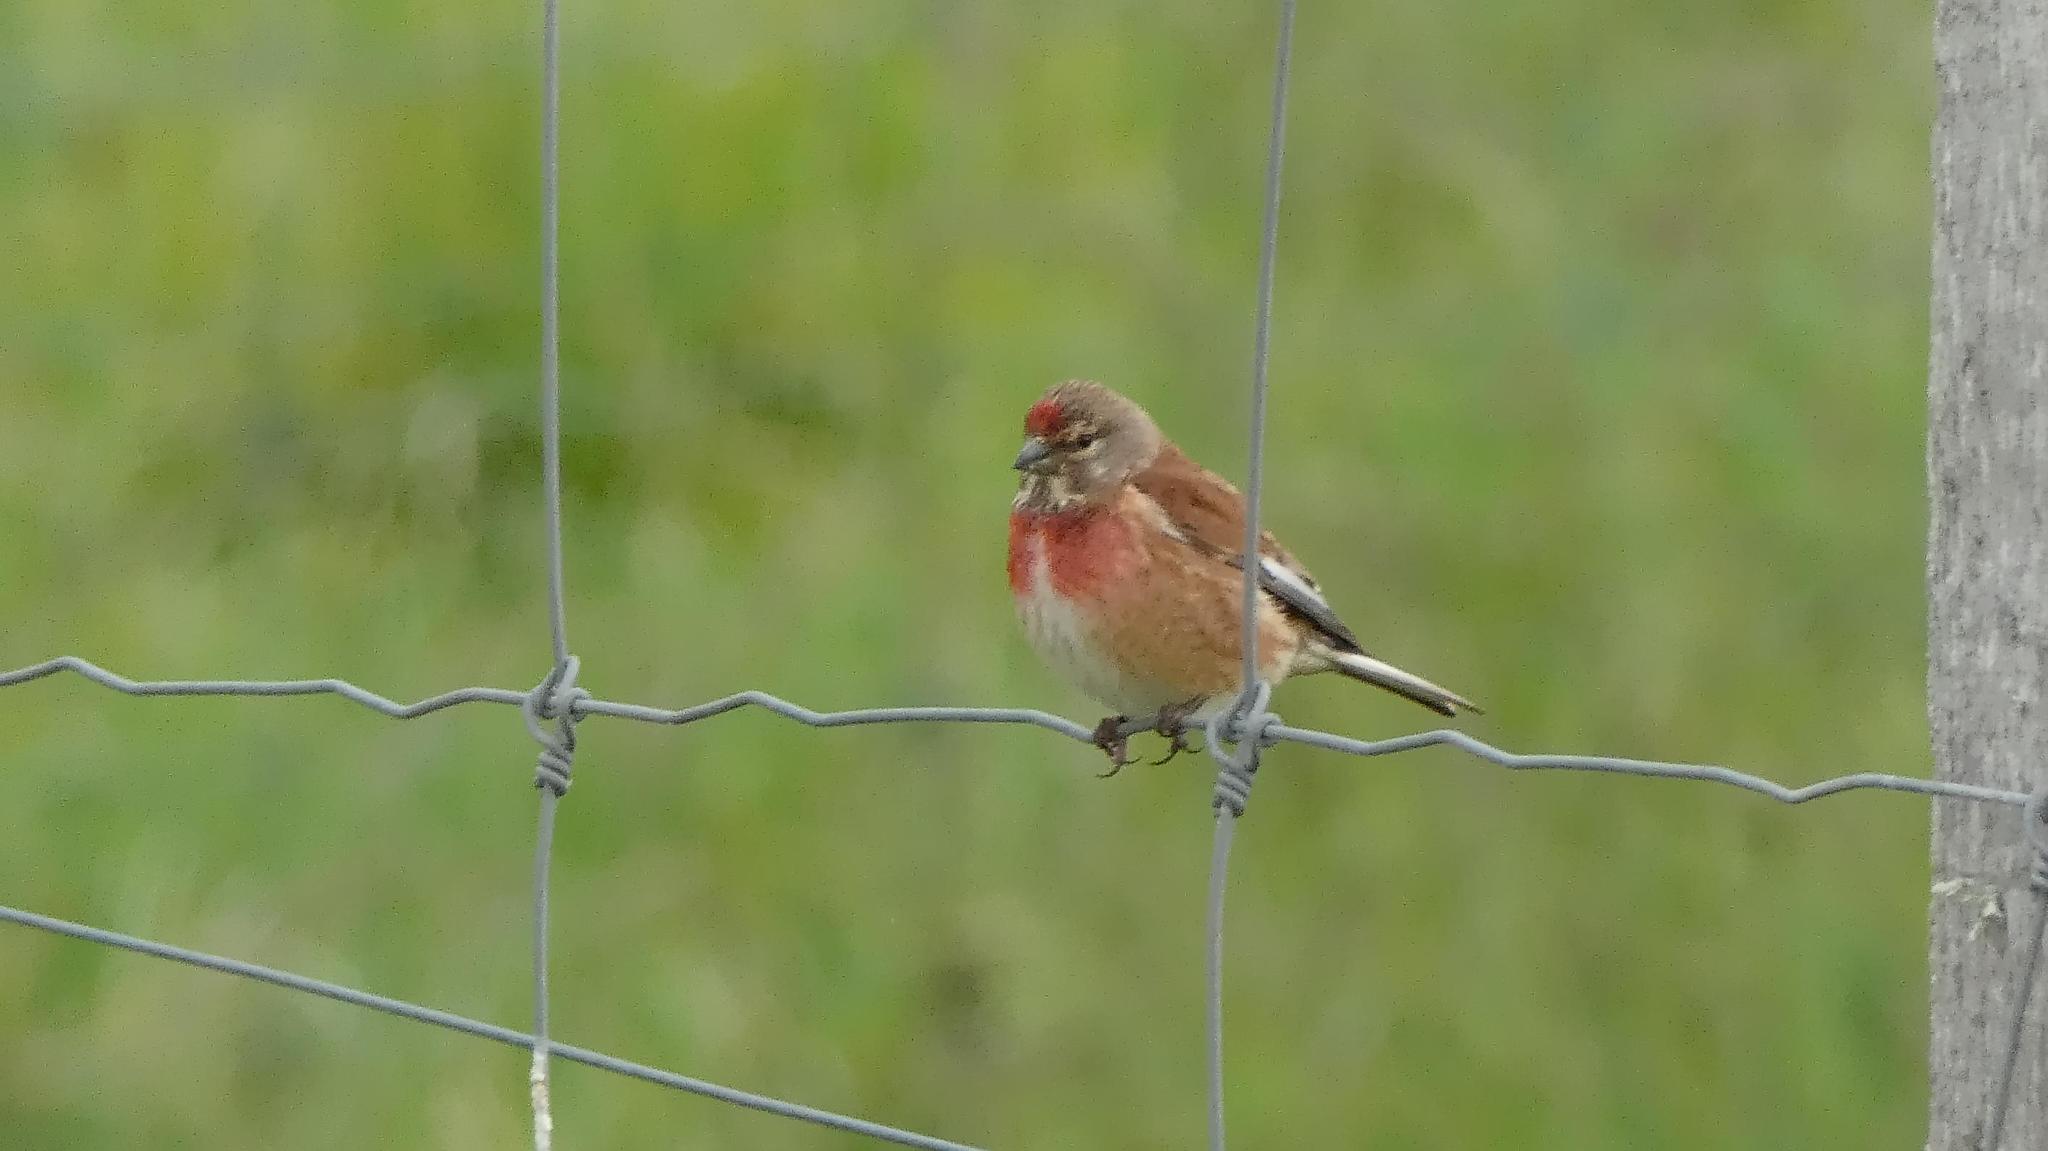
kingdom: Animalia
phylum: Chordata
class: Aves
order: Passeriformes
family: Fringillidae
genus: Linaria
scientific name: Linaria cannabina
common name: Common linnet
